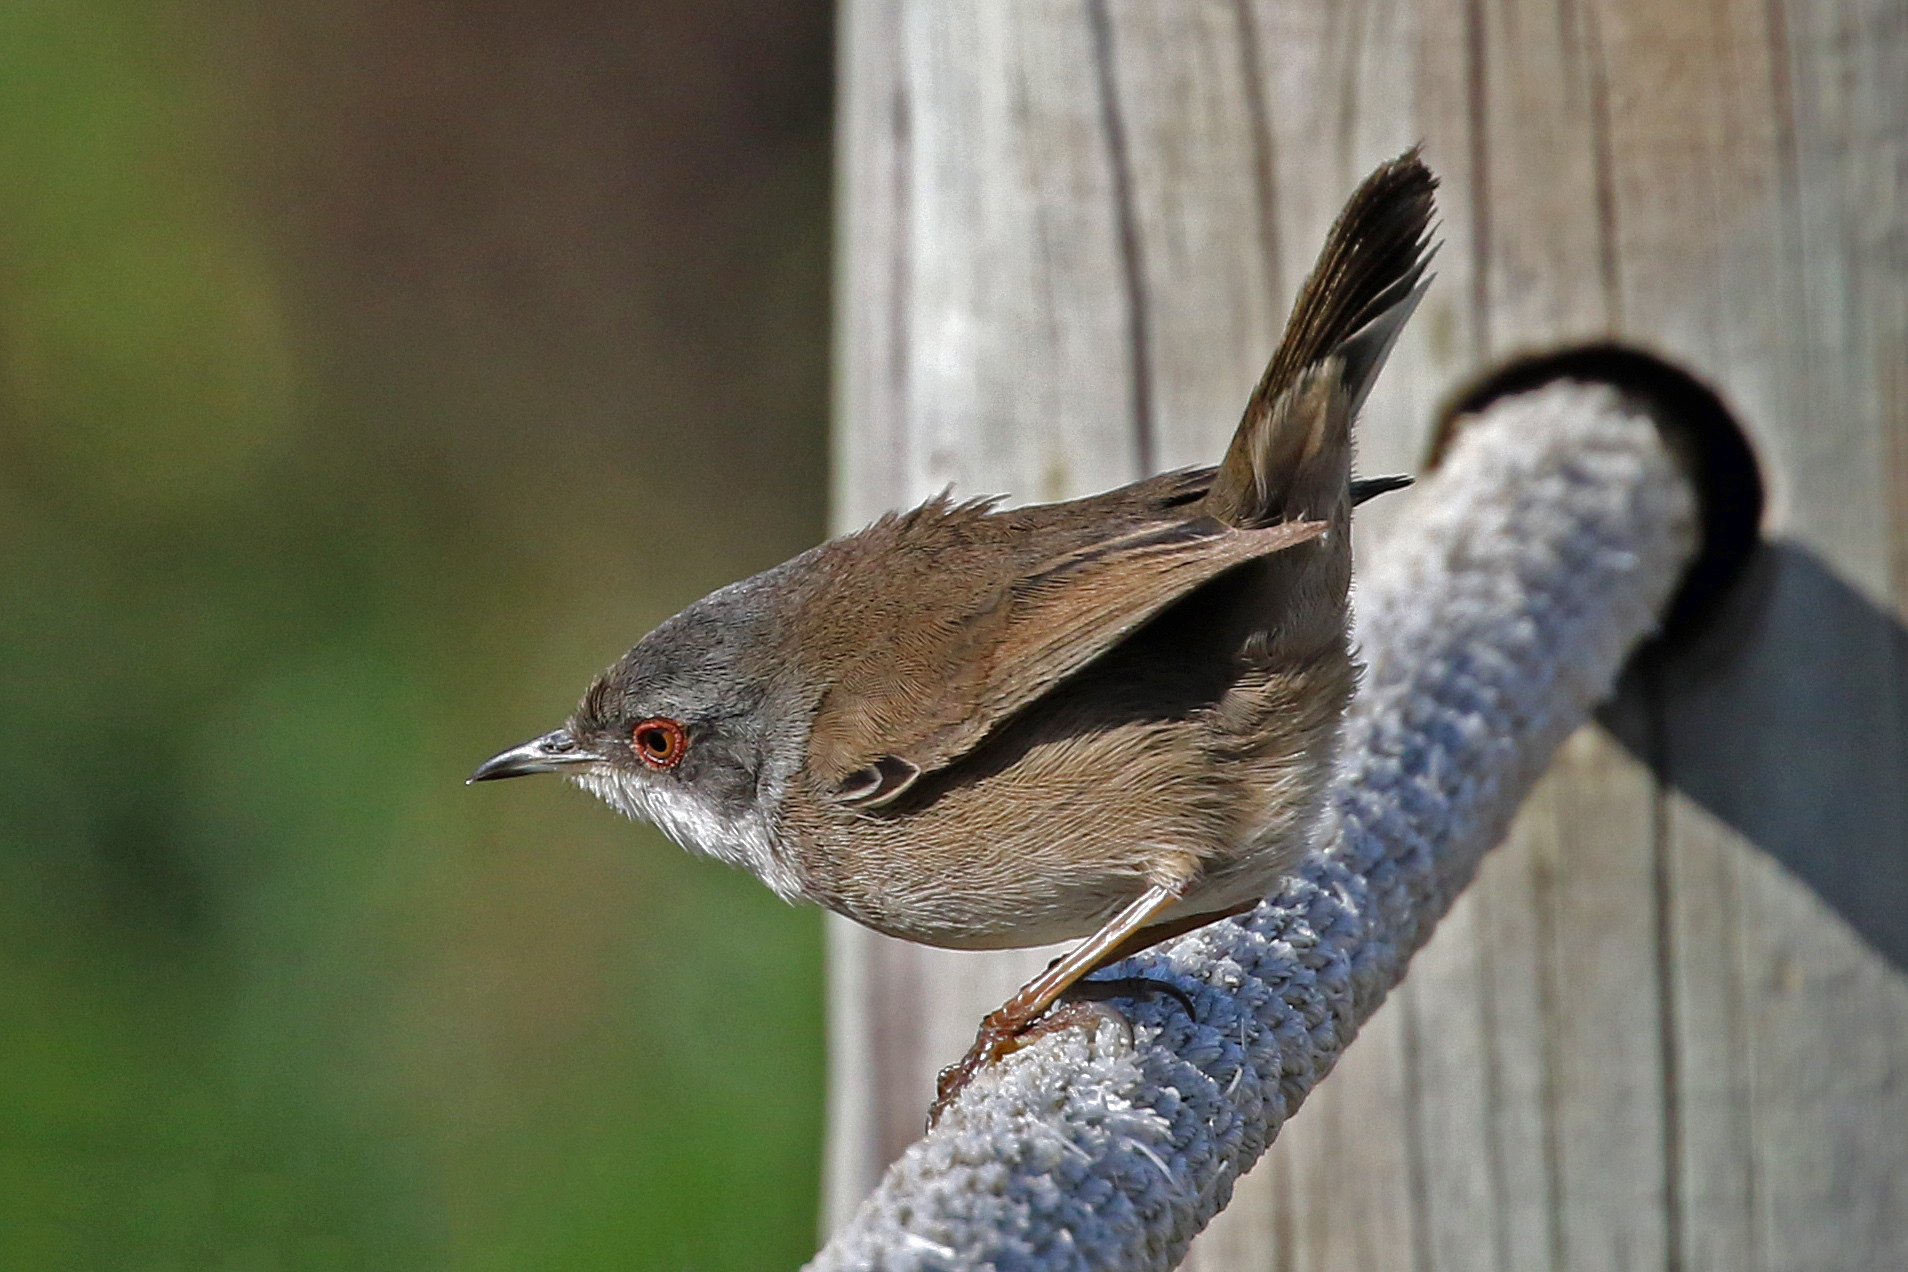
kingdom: Animalia
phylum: Chordata
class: Aves
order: Passeriformes
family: Sylviidae
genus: Curruca
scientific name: Curruca melanocephala
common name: Sardinian warbler
